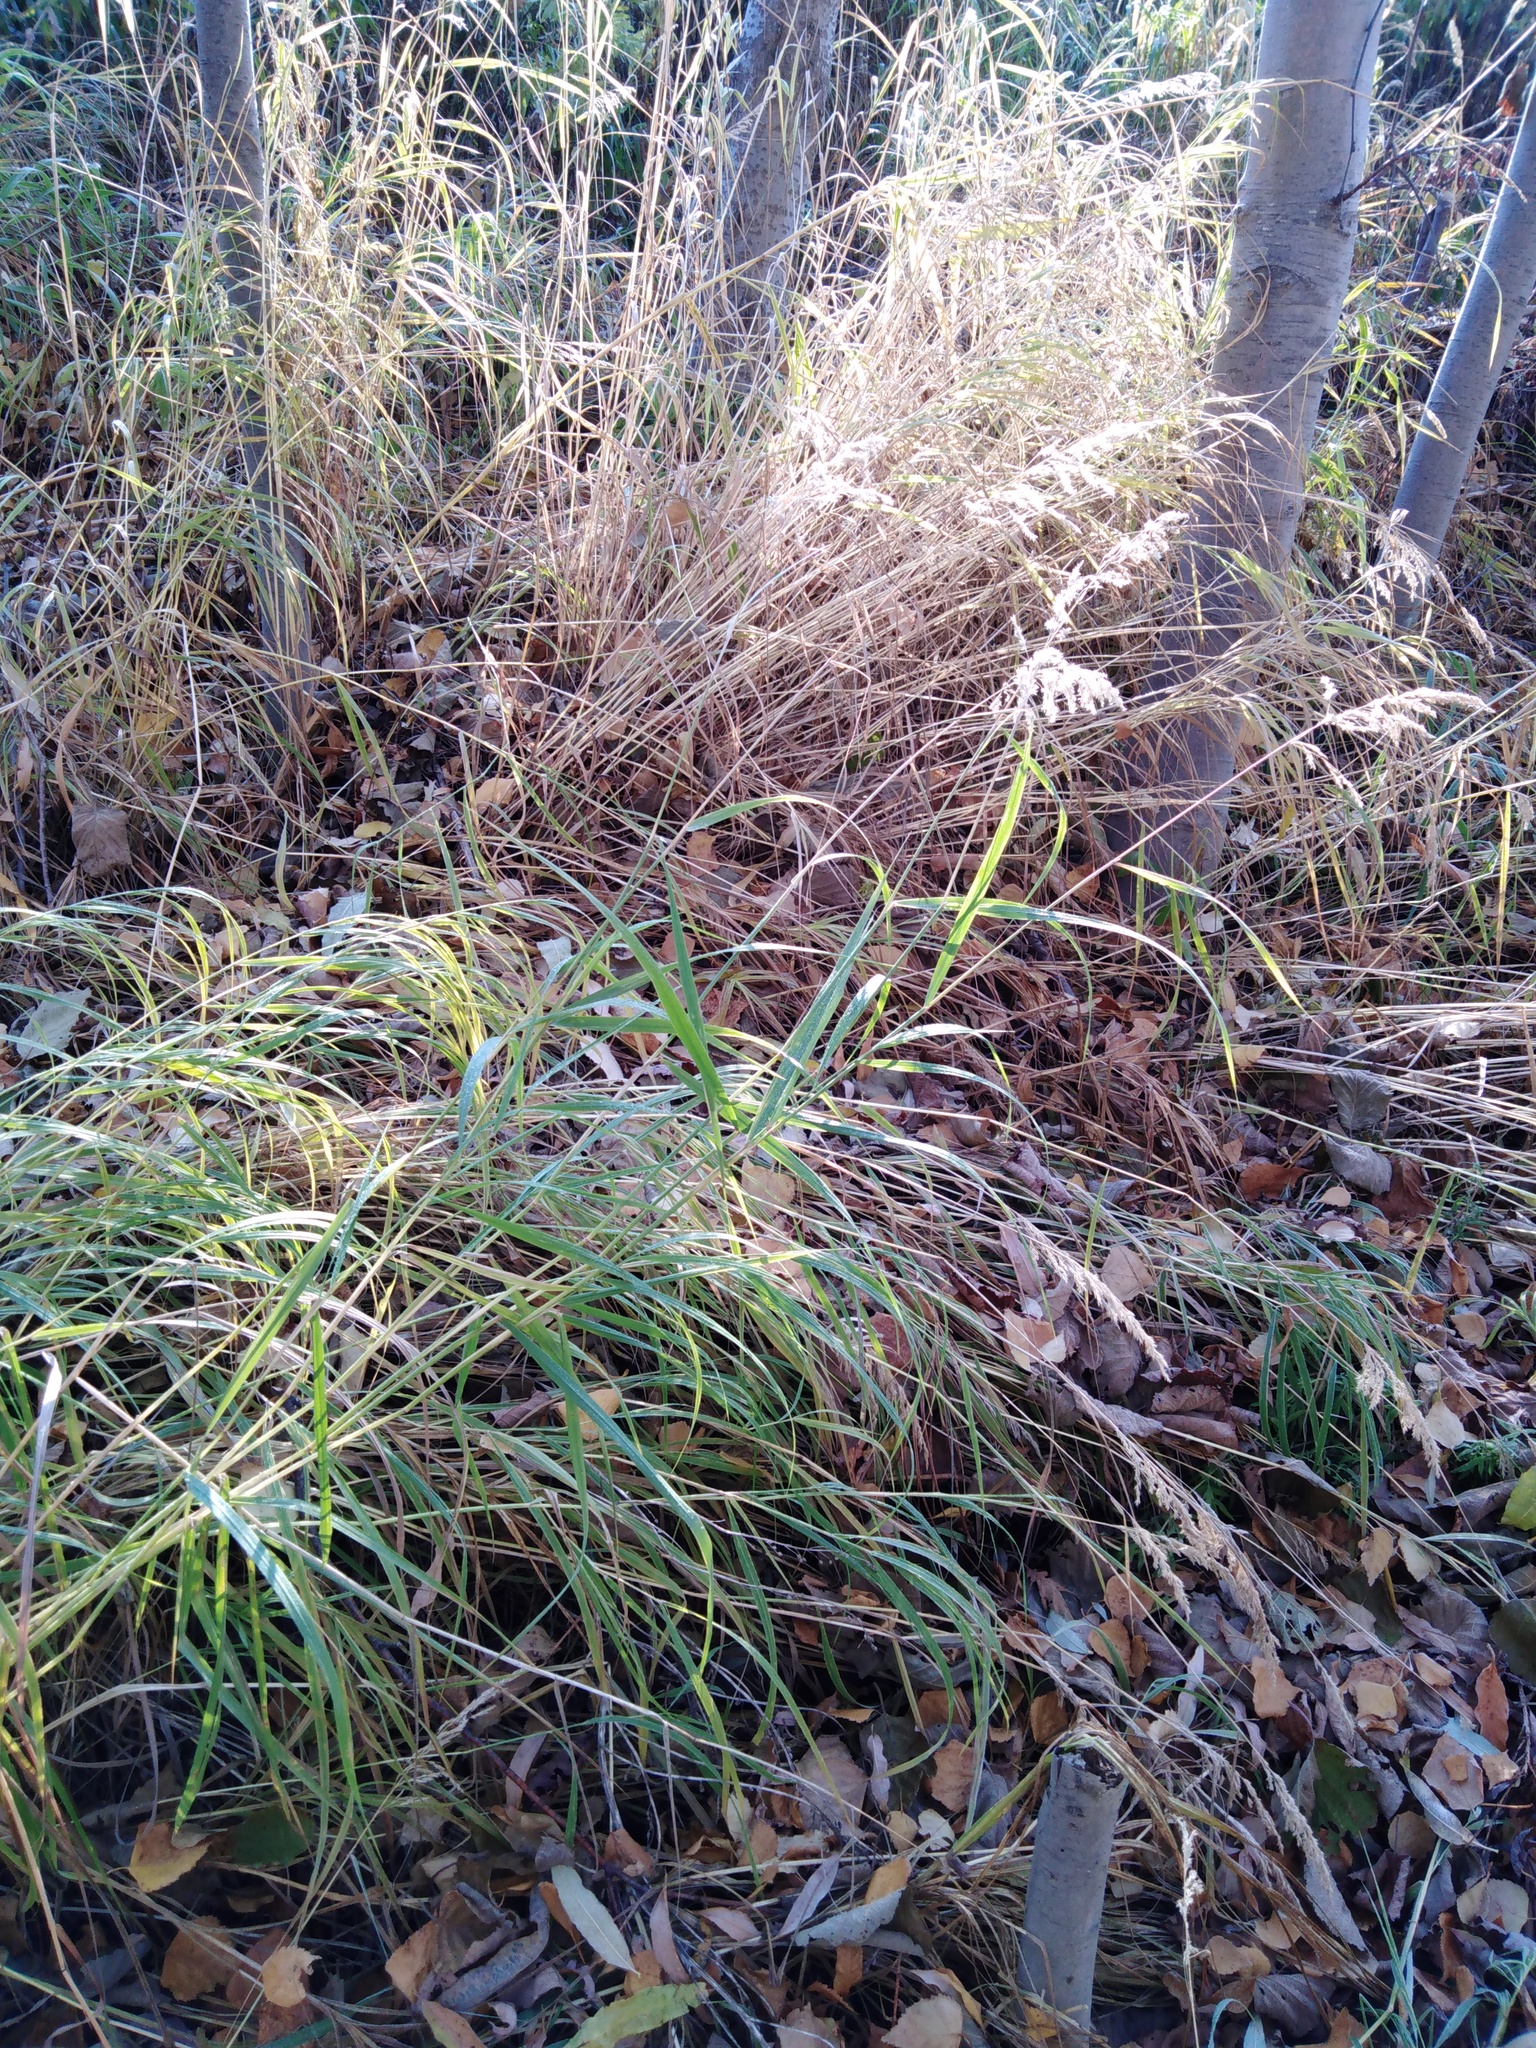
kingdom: Plantae
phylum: Tracheophyta
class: Liliopsida
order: Poales
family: Poaceae
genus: Calamagrostis
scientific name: Calamagrostis purpurea
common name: Scandinavian small-reed
